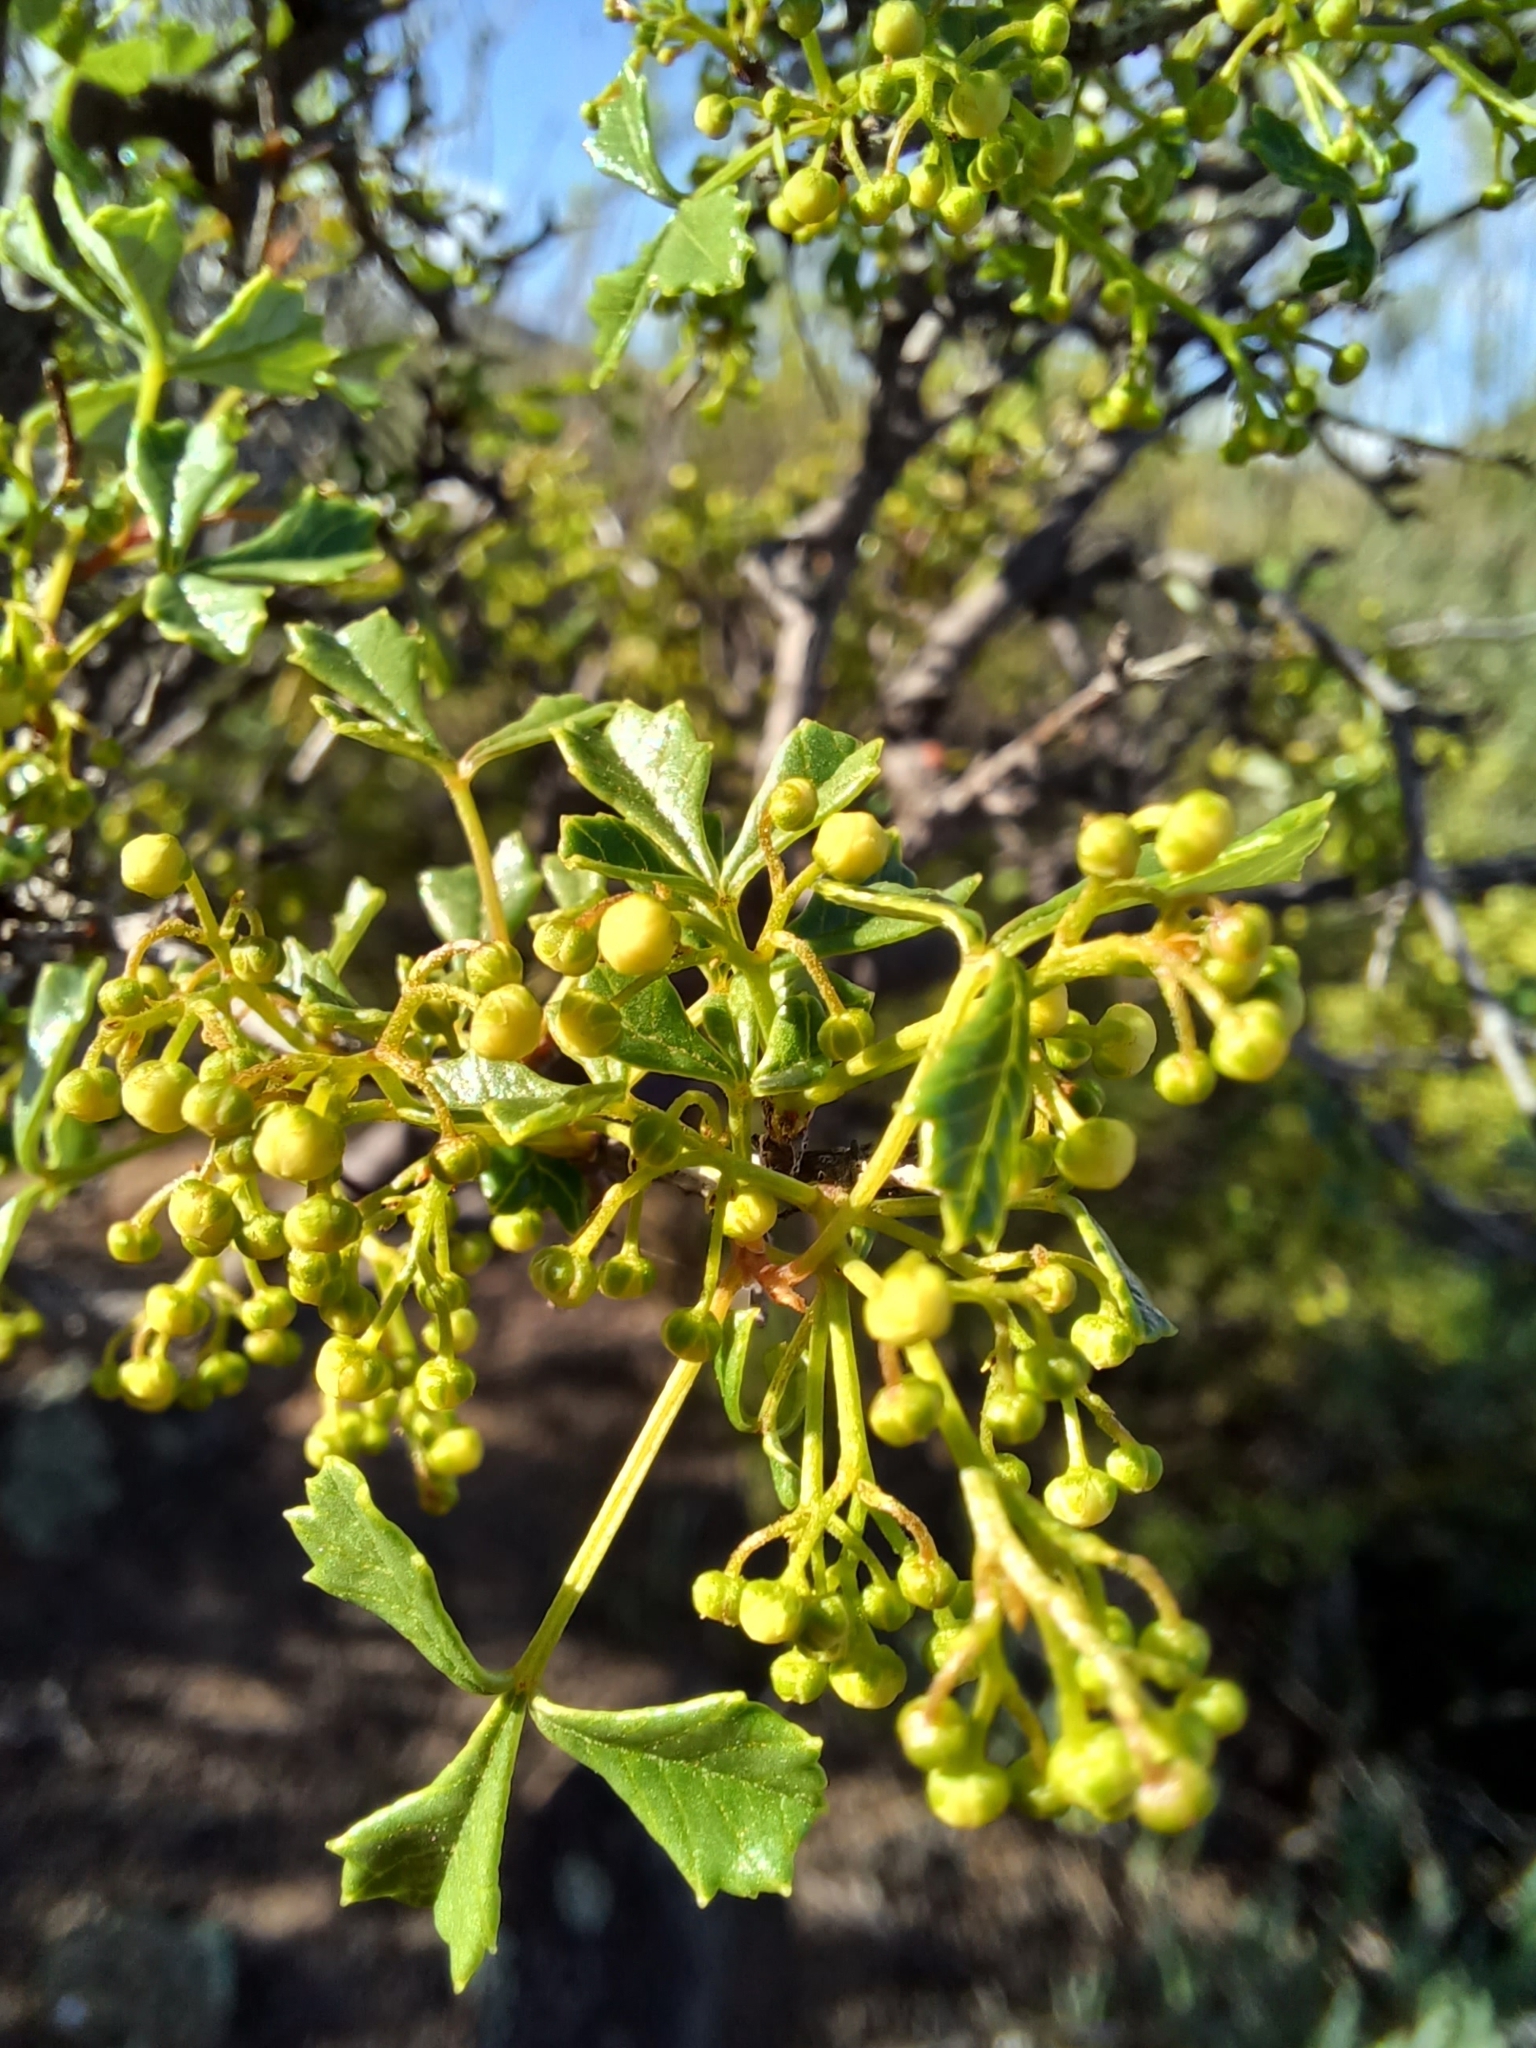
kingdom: Plantae
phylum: Tracheophyta
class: Magnoliopsida
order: Sapindales
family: Anacardiaceae
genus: Searsia
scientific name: Searsia dissecta
